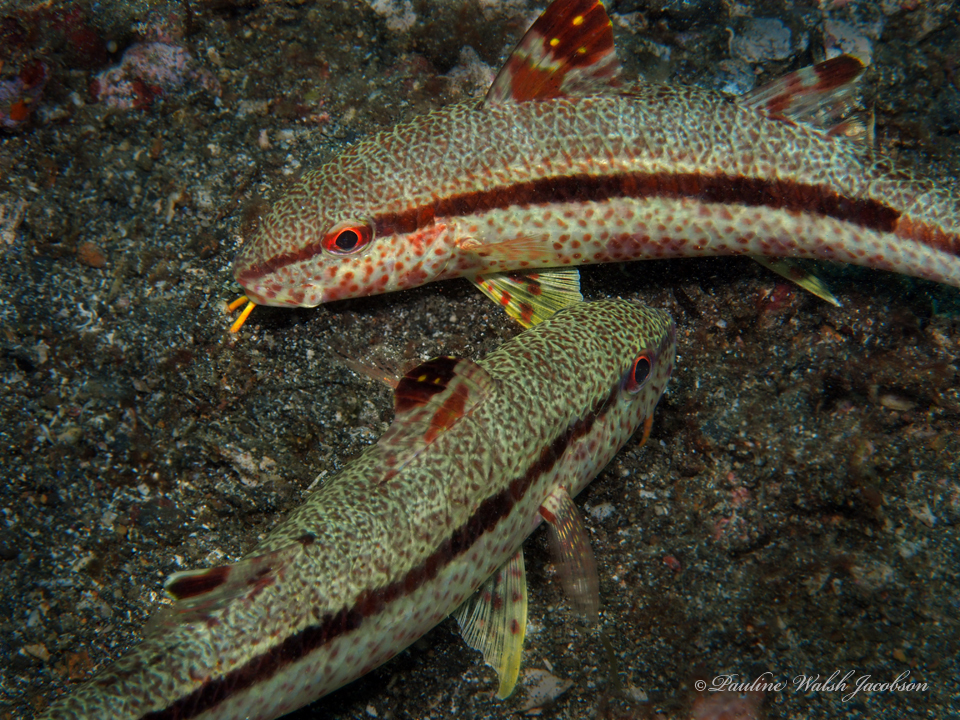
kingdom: Animalia
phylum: Chordata
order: Perciformes
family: Mullidae
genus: Upeneus
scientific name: Upeneus tragula
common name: Freckled goatfish
